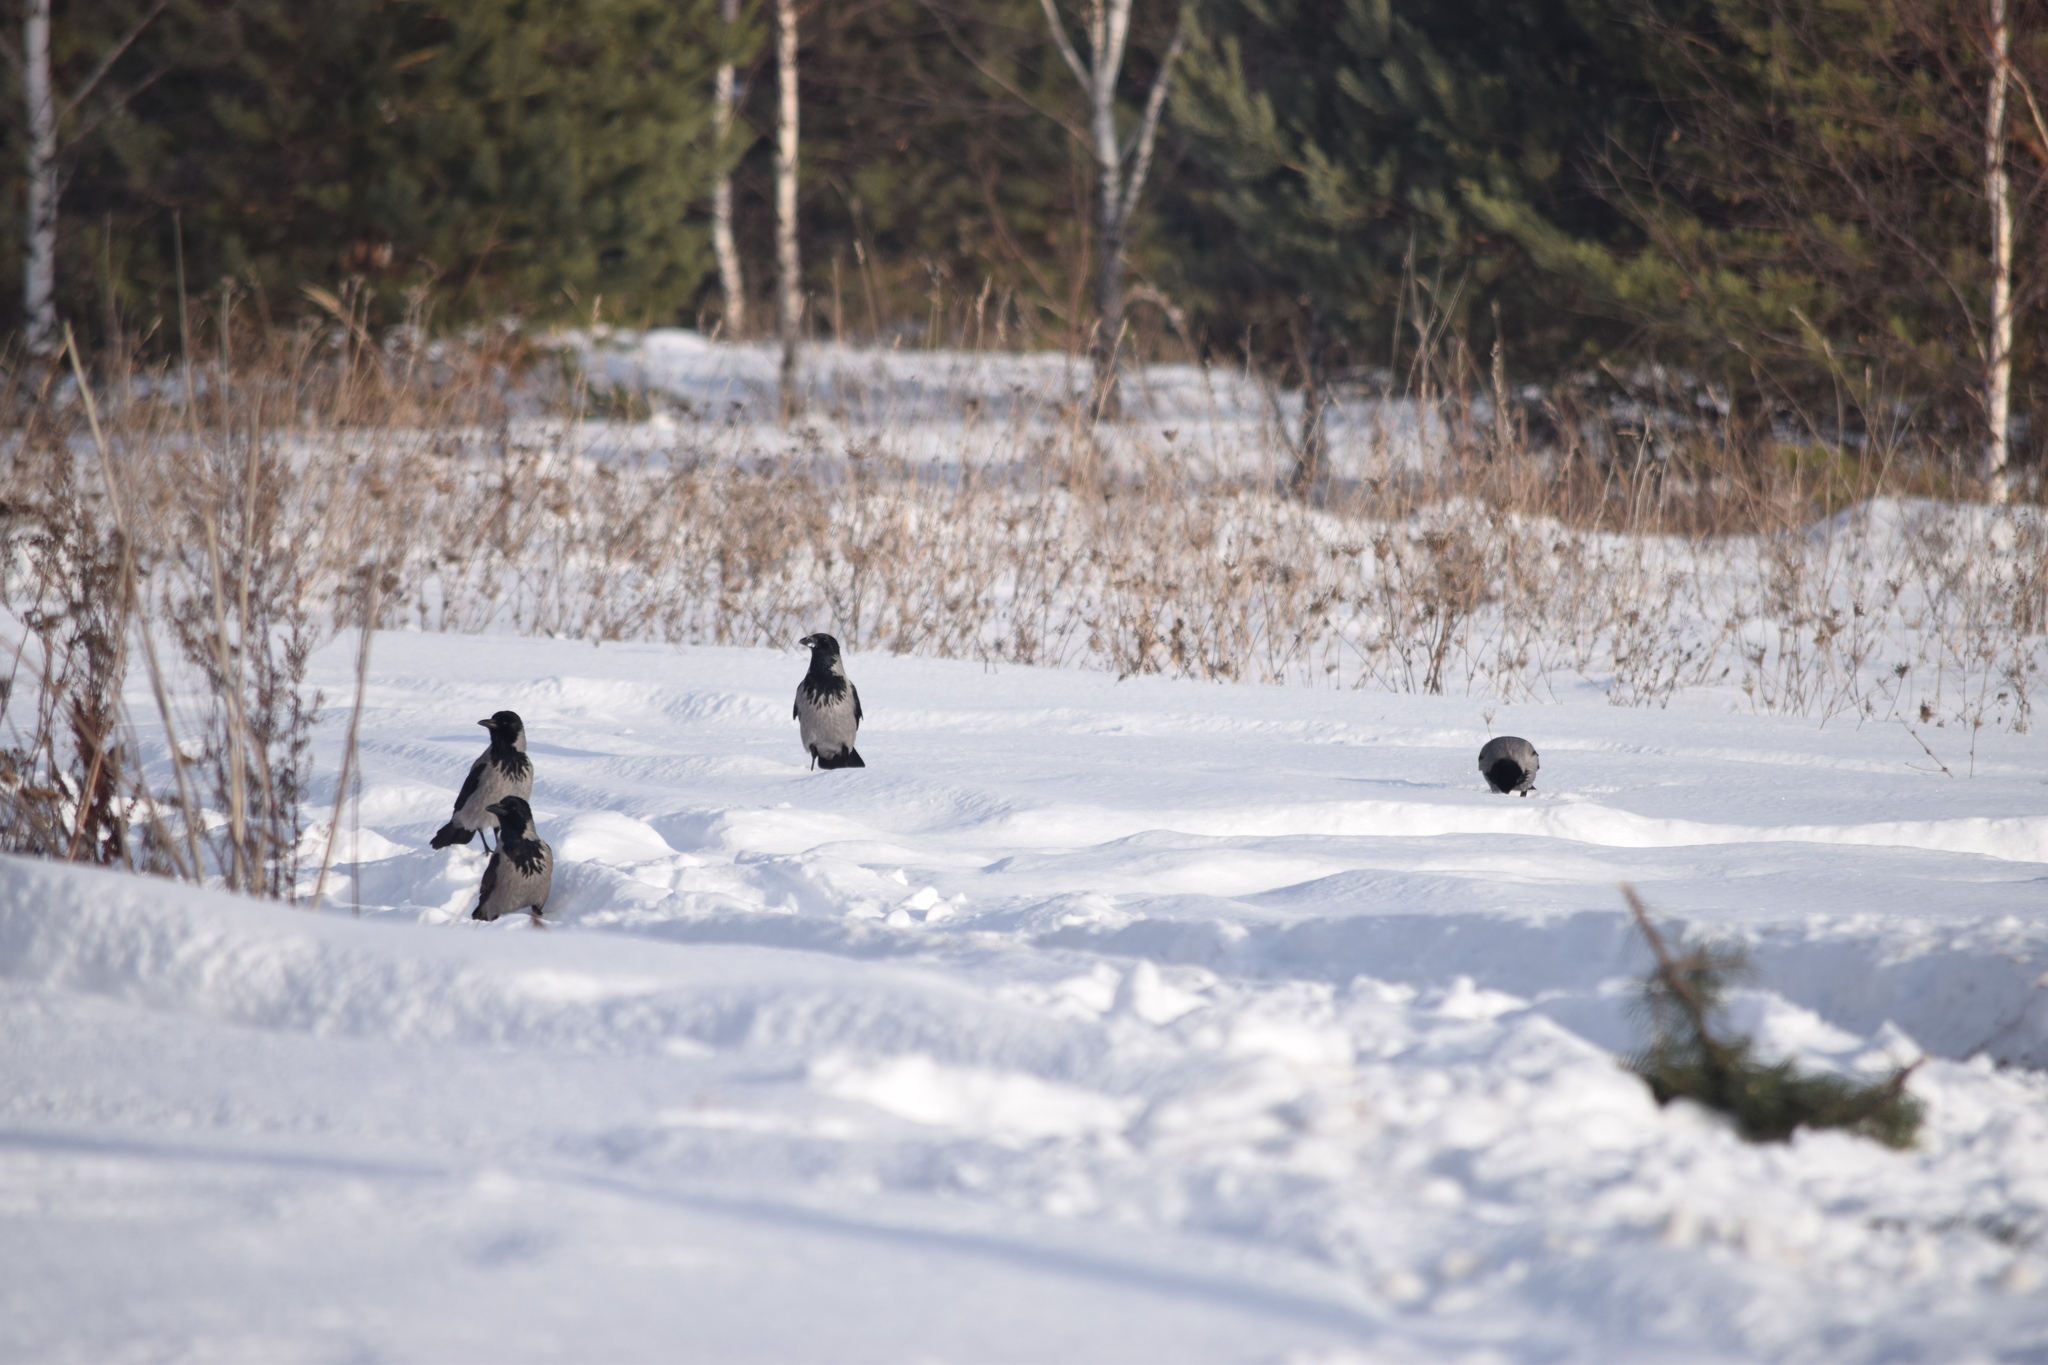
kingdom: Animalia
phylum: Chordata
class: Aves
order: Passeriformes
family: Corvidae
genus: Corvus
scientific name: Corvus cornix
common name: Hooded crow
